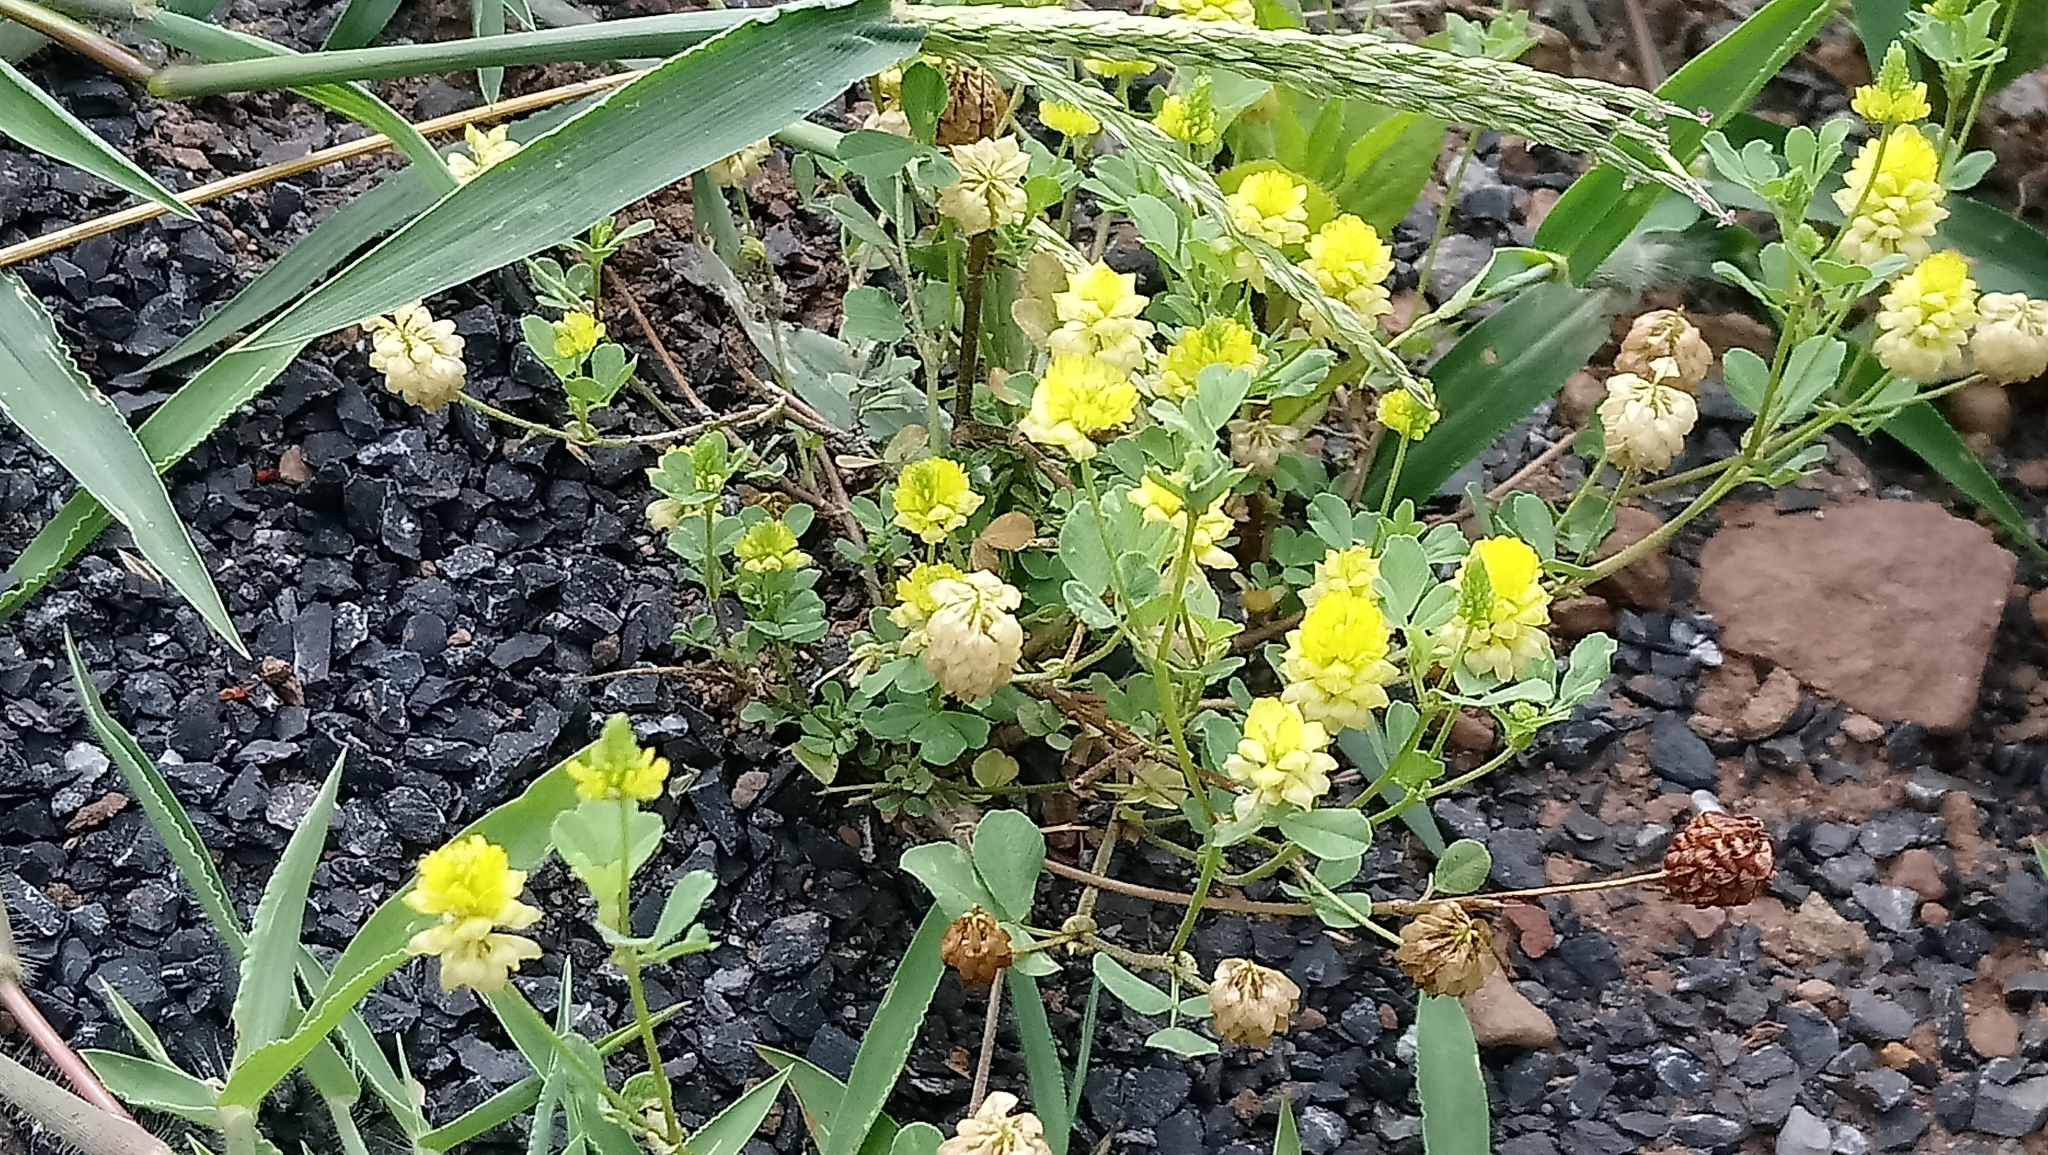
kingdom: Plantae
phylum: Tracheophyta
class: Magnoliopsida
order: Fabales
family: Fabaceae
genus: Trifolium
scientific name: Trifolium campestre
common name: Field clover
